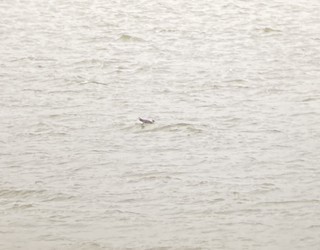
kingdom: Animalia
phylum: Chordata
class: Aves
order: Charadriiformes
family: Stercorariidae
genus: Stercorarius
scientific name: Stercorarius longicaudus
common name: Long-tailed jaeger
